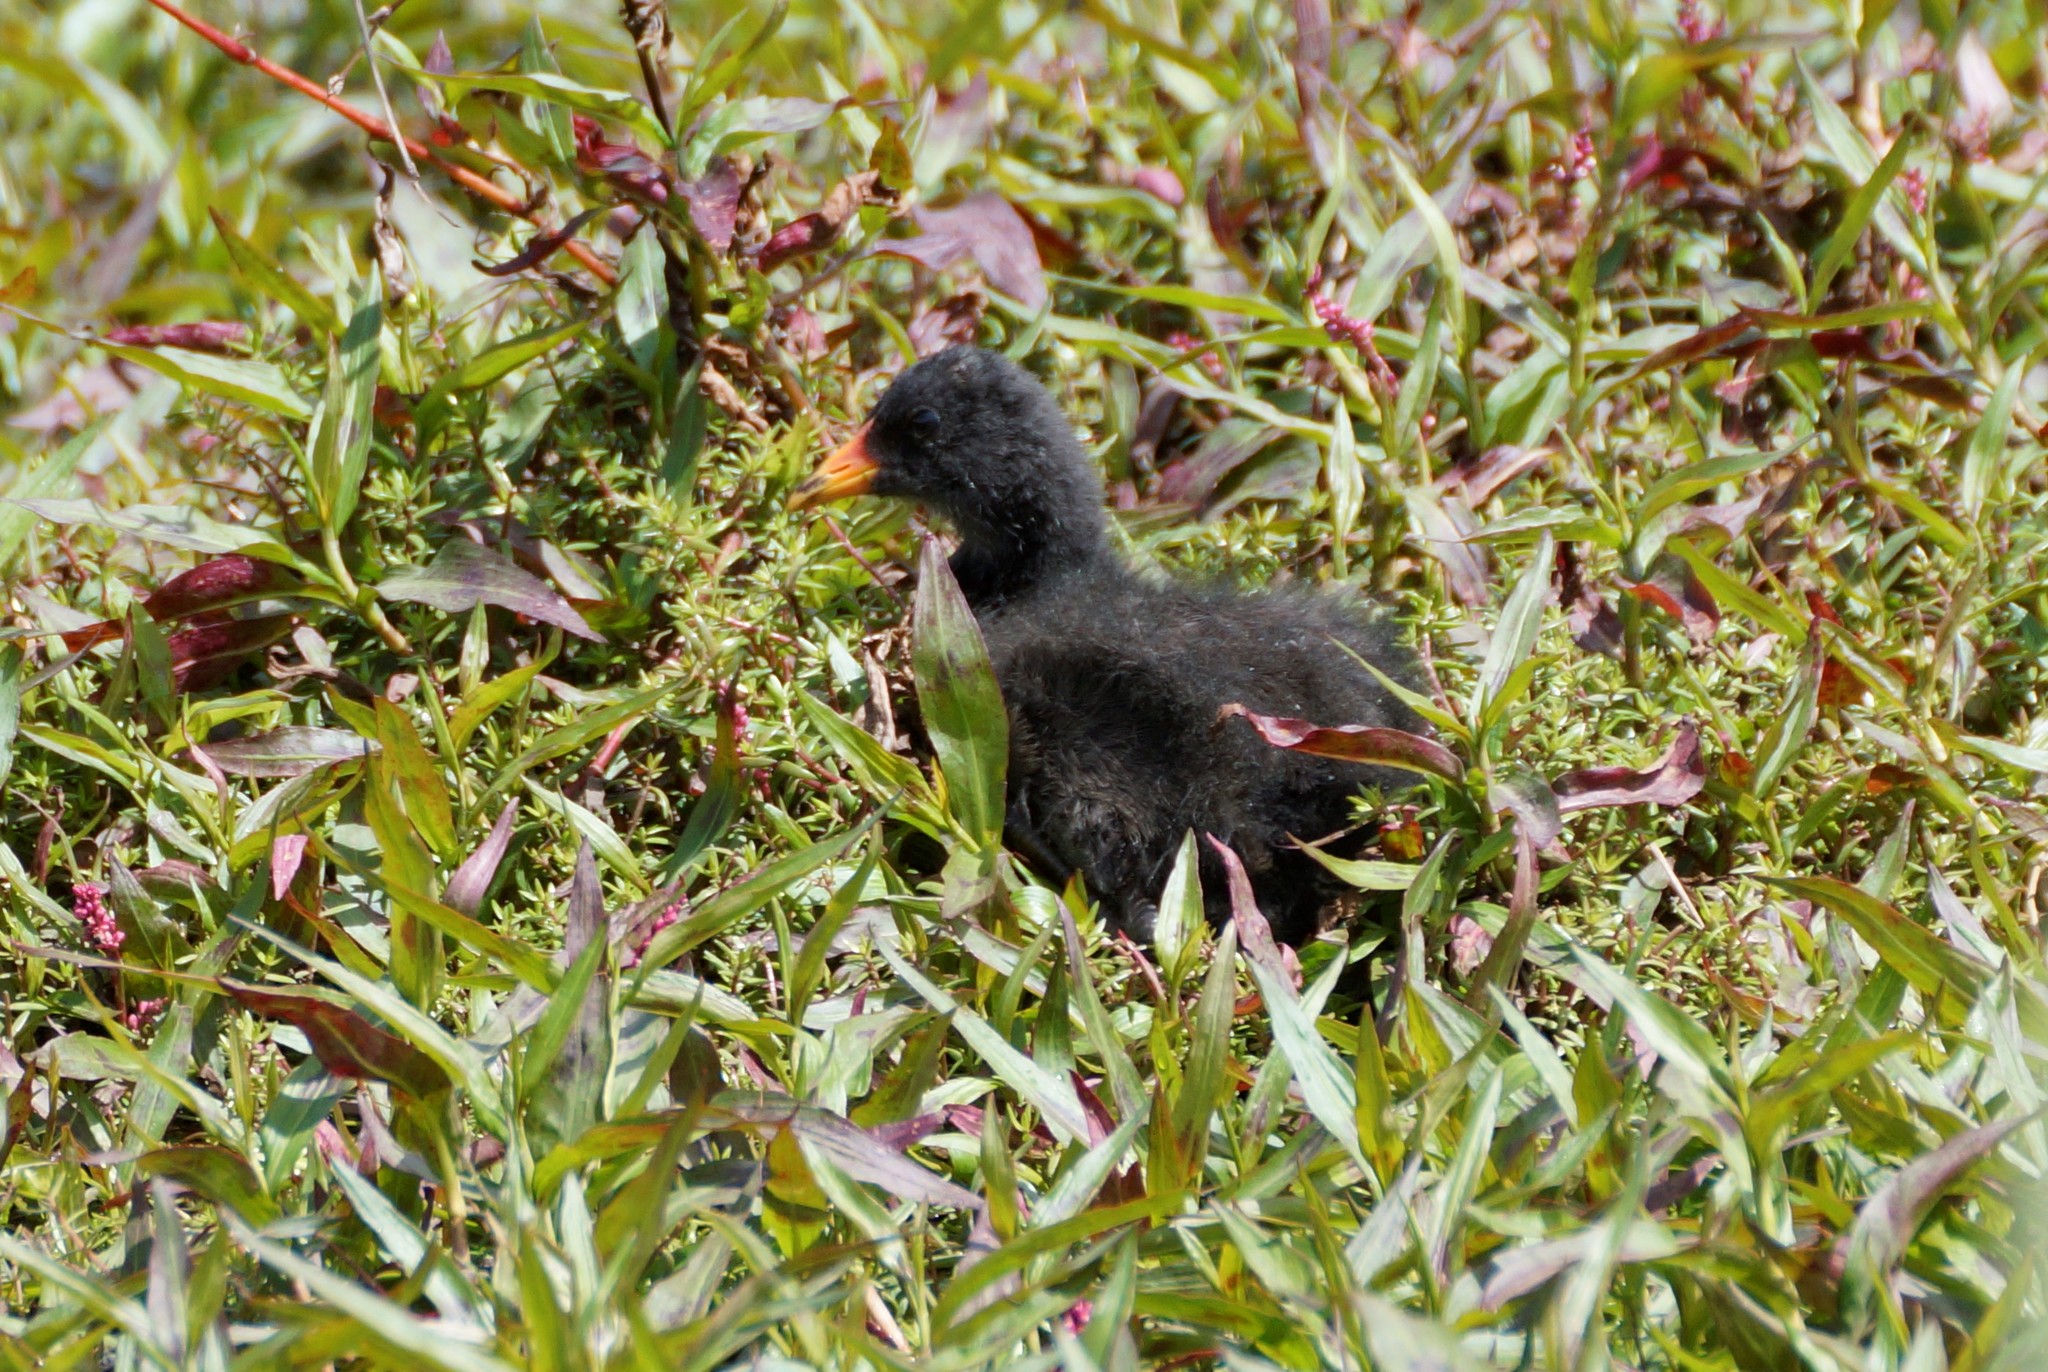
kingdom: Animalia
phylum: Chordata
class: Aves
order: Gruiformes
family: Rallidae
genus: Gallinula
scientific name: Gallinula tenebrosa
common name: Dusky moorhen
